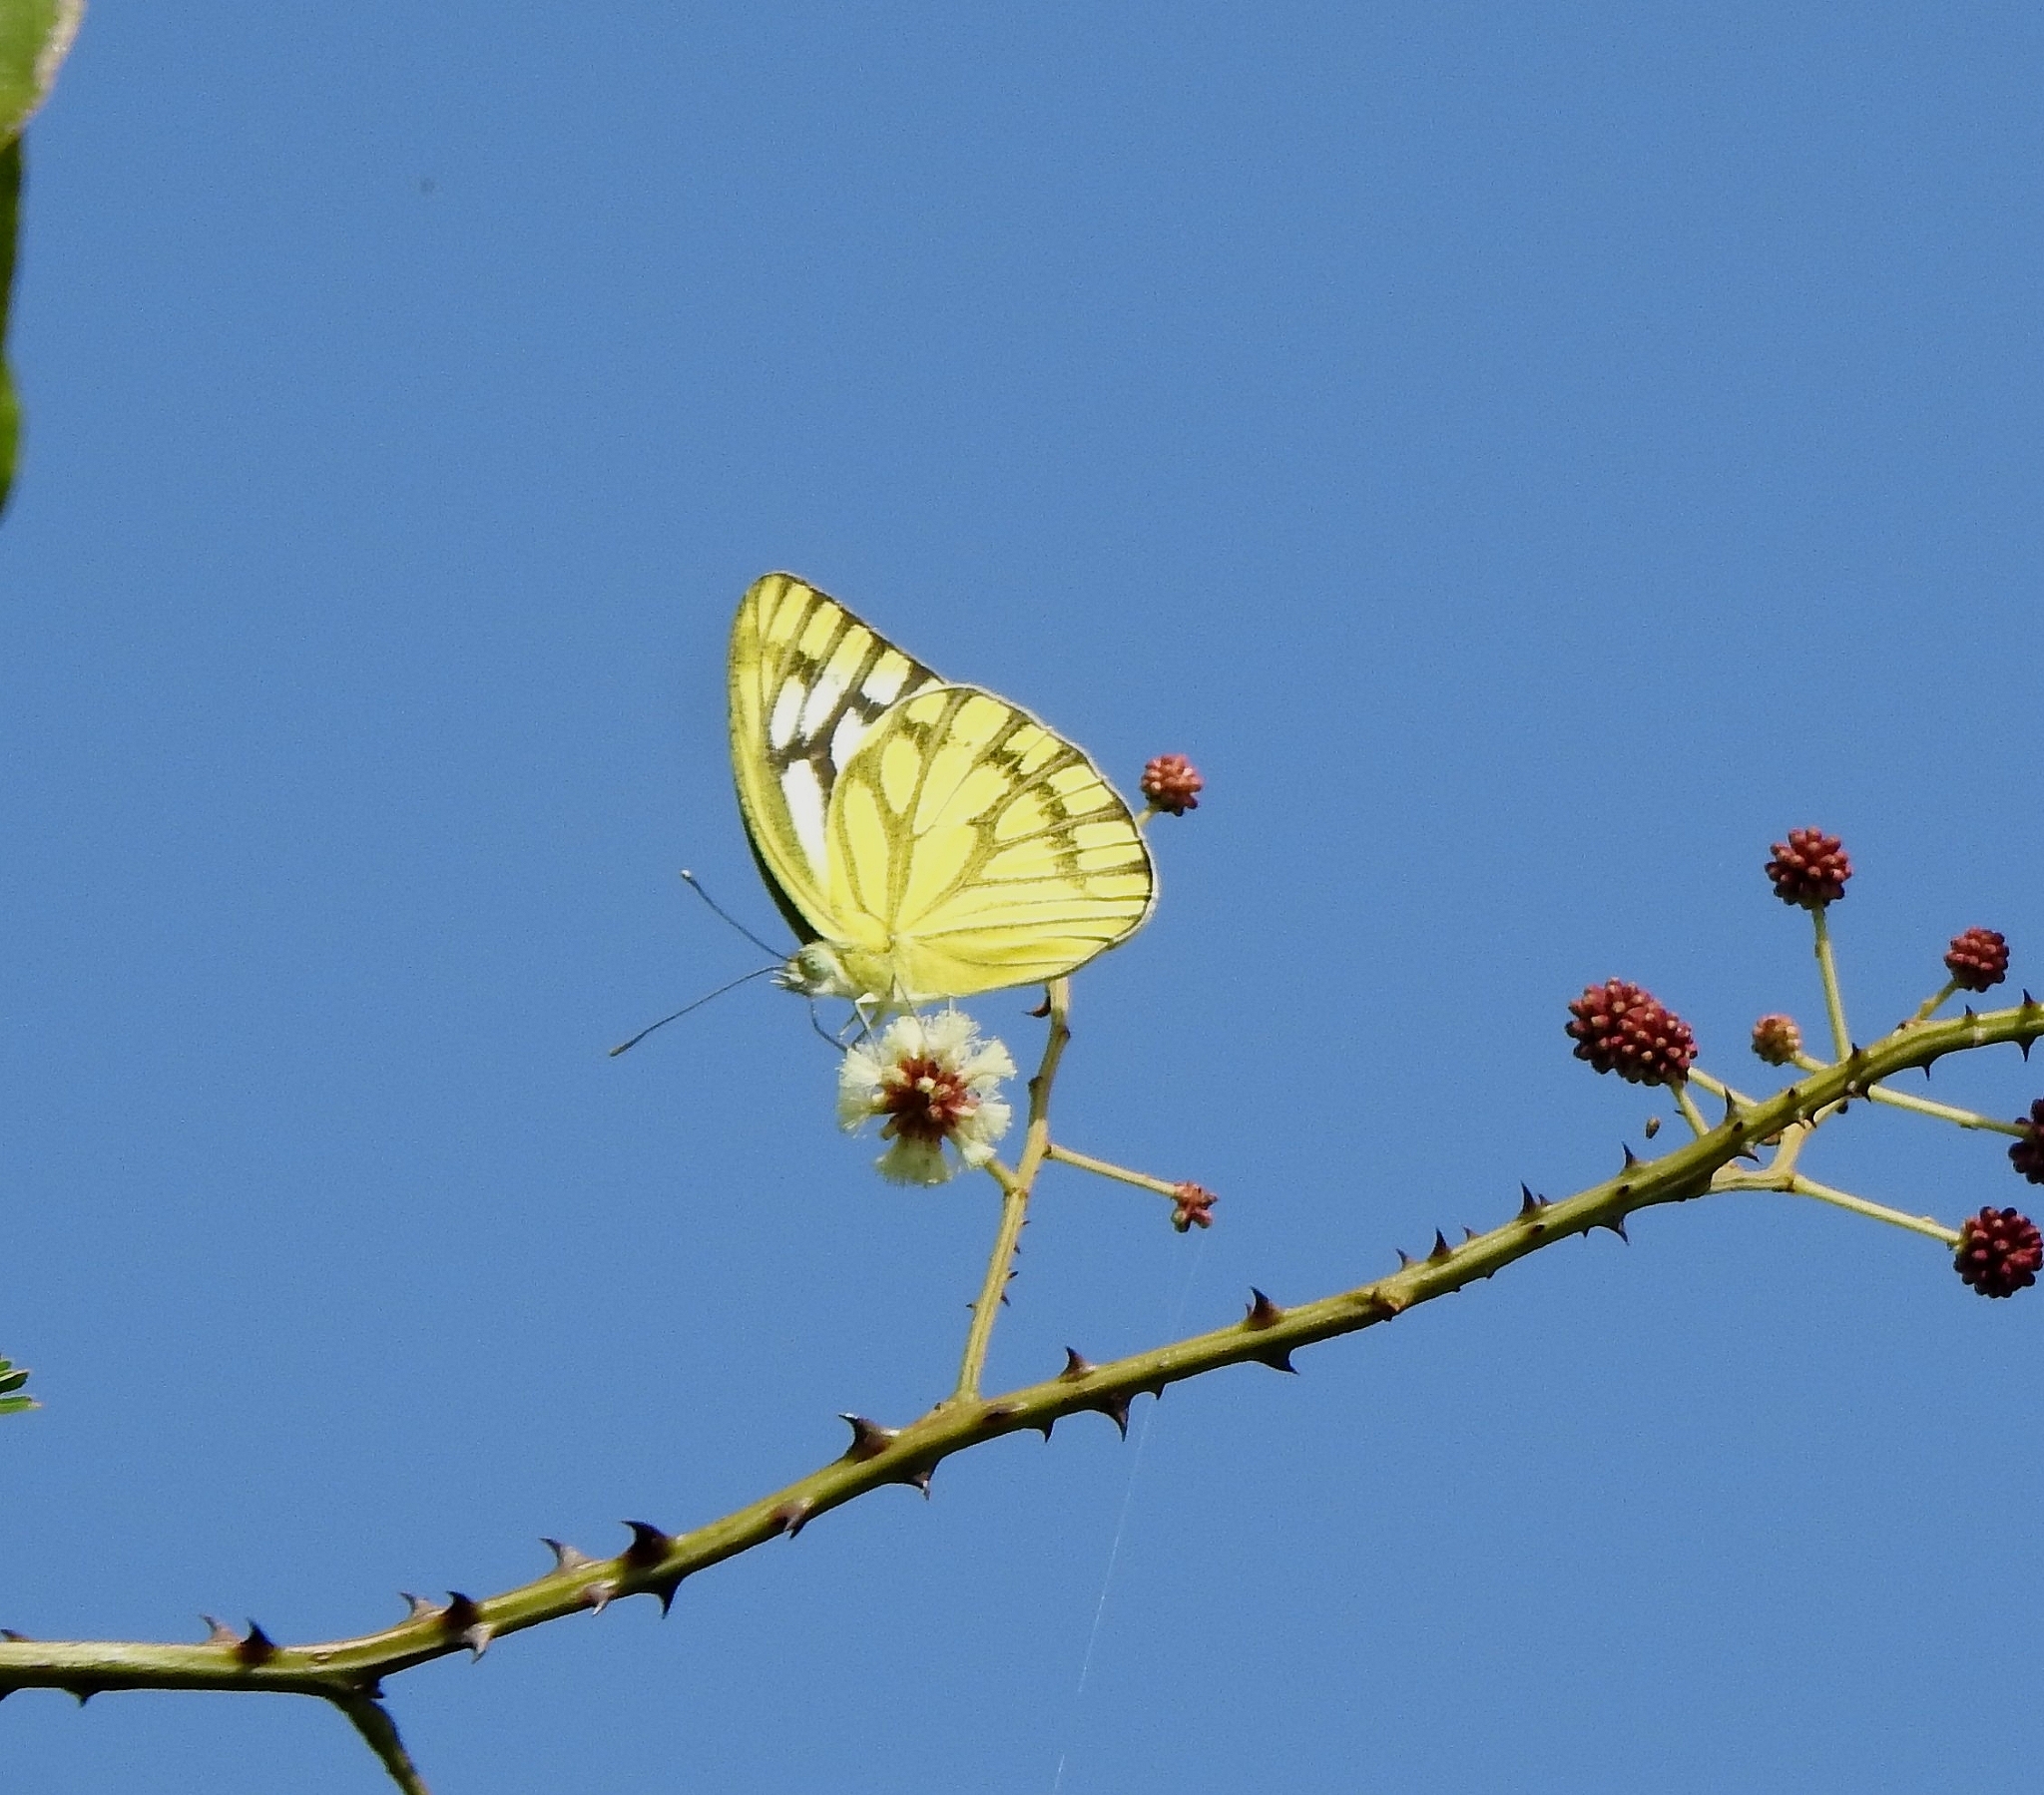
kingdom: Animalia
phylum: Arthropoda
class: Insecta
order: Lepidoptera
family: Pieridae
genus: Cepora
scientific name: Cepora nerissa
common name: Common gull
